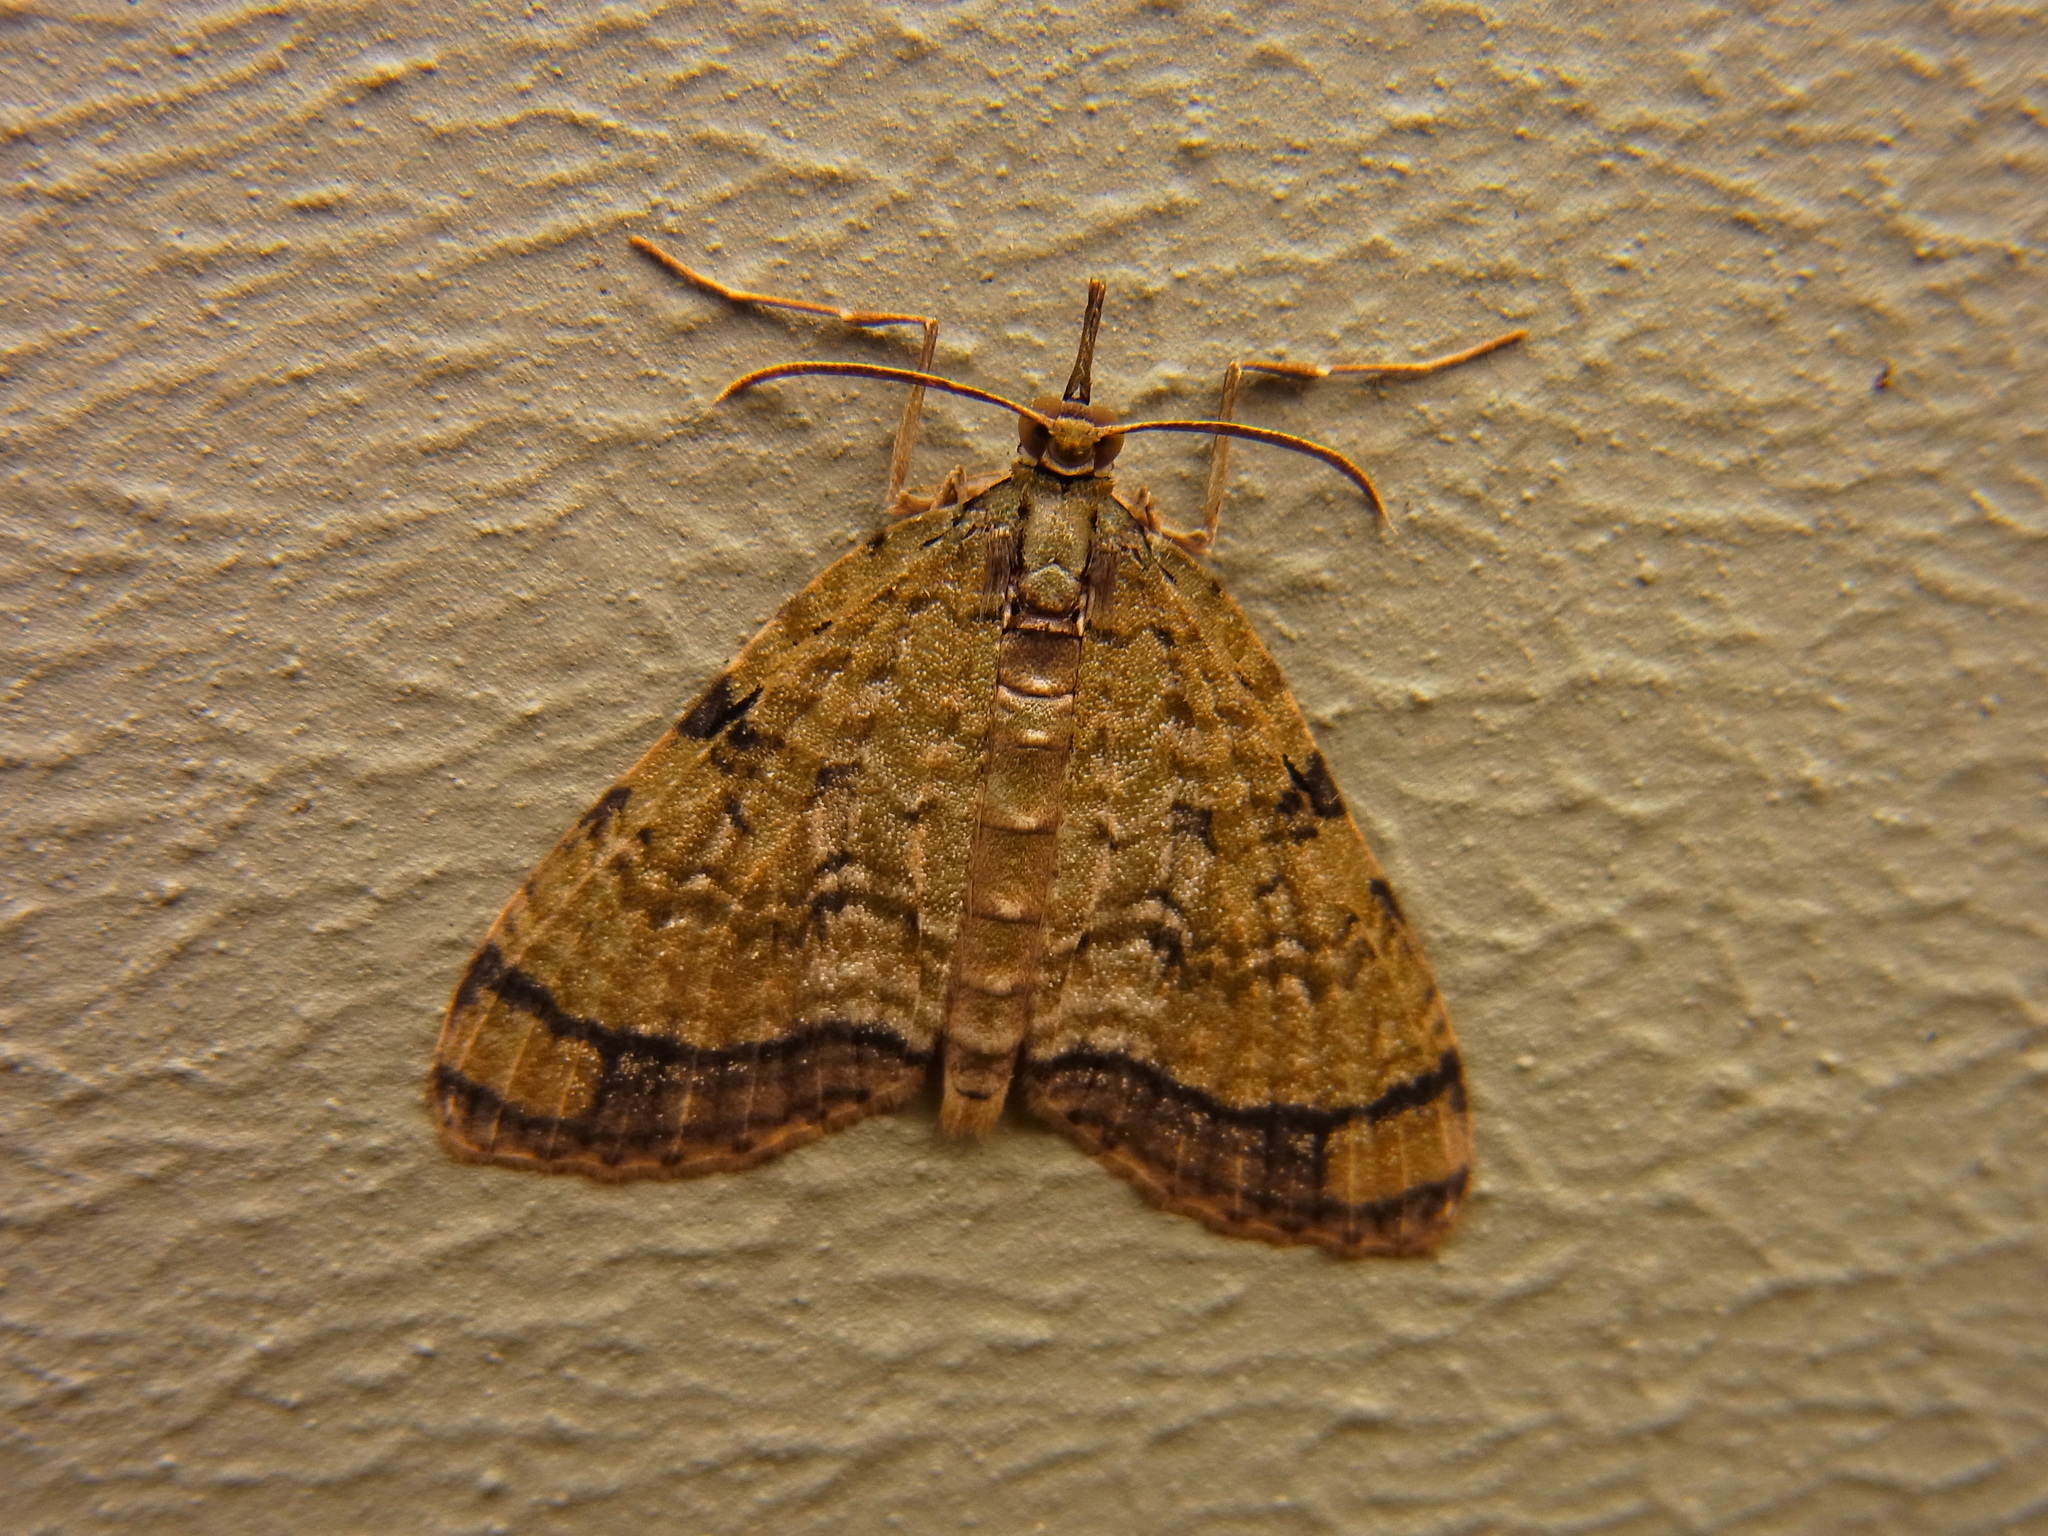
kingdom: Animalia
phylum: Arthropoda
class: Insecta
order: Lepidoptera
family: Geometridae
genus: Episteira
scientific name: Episteira nigrilinearia
